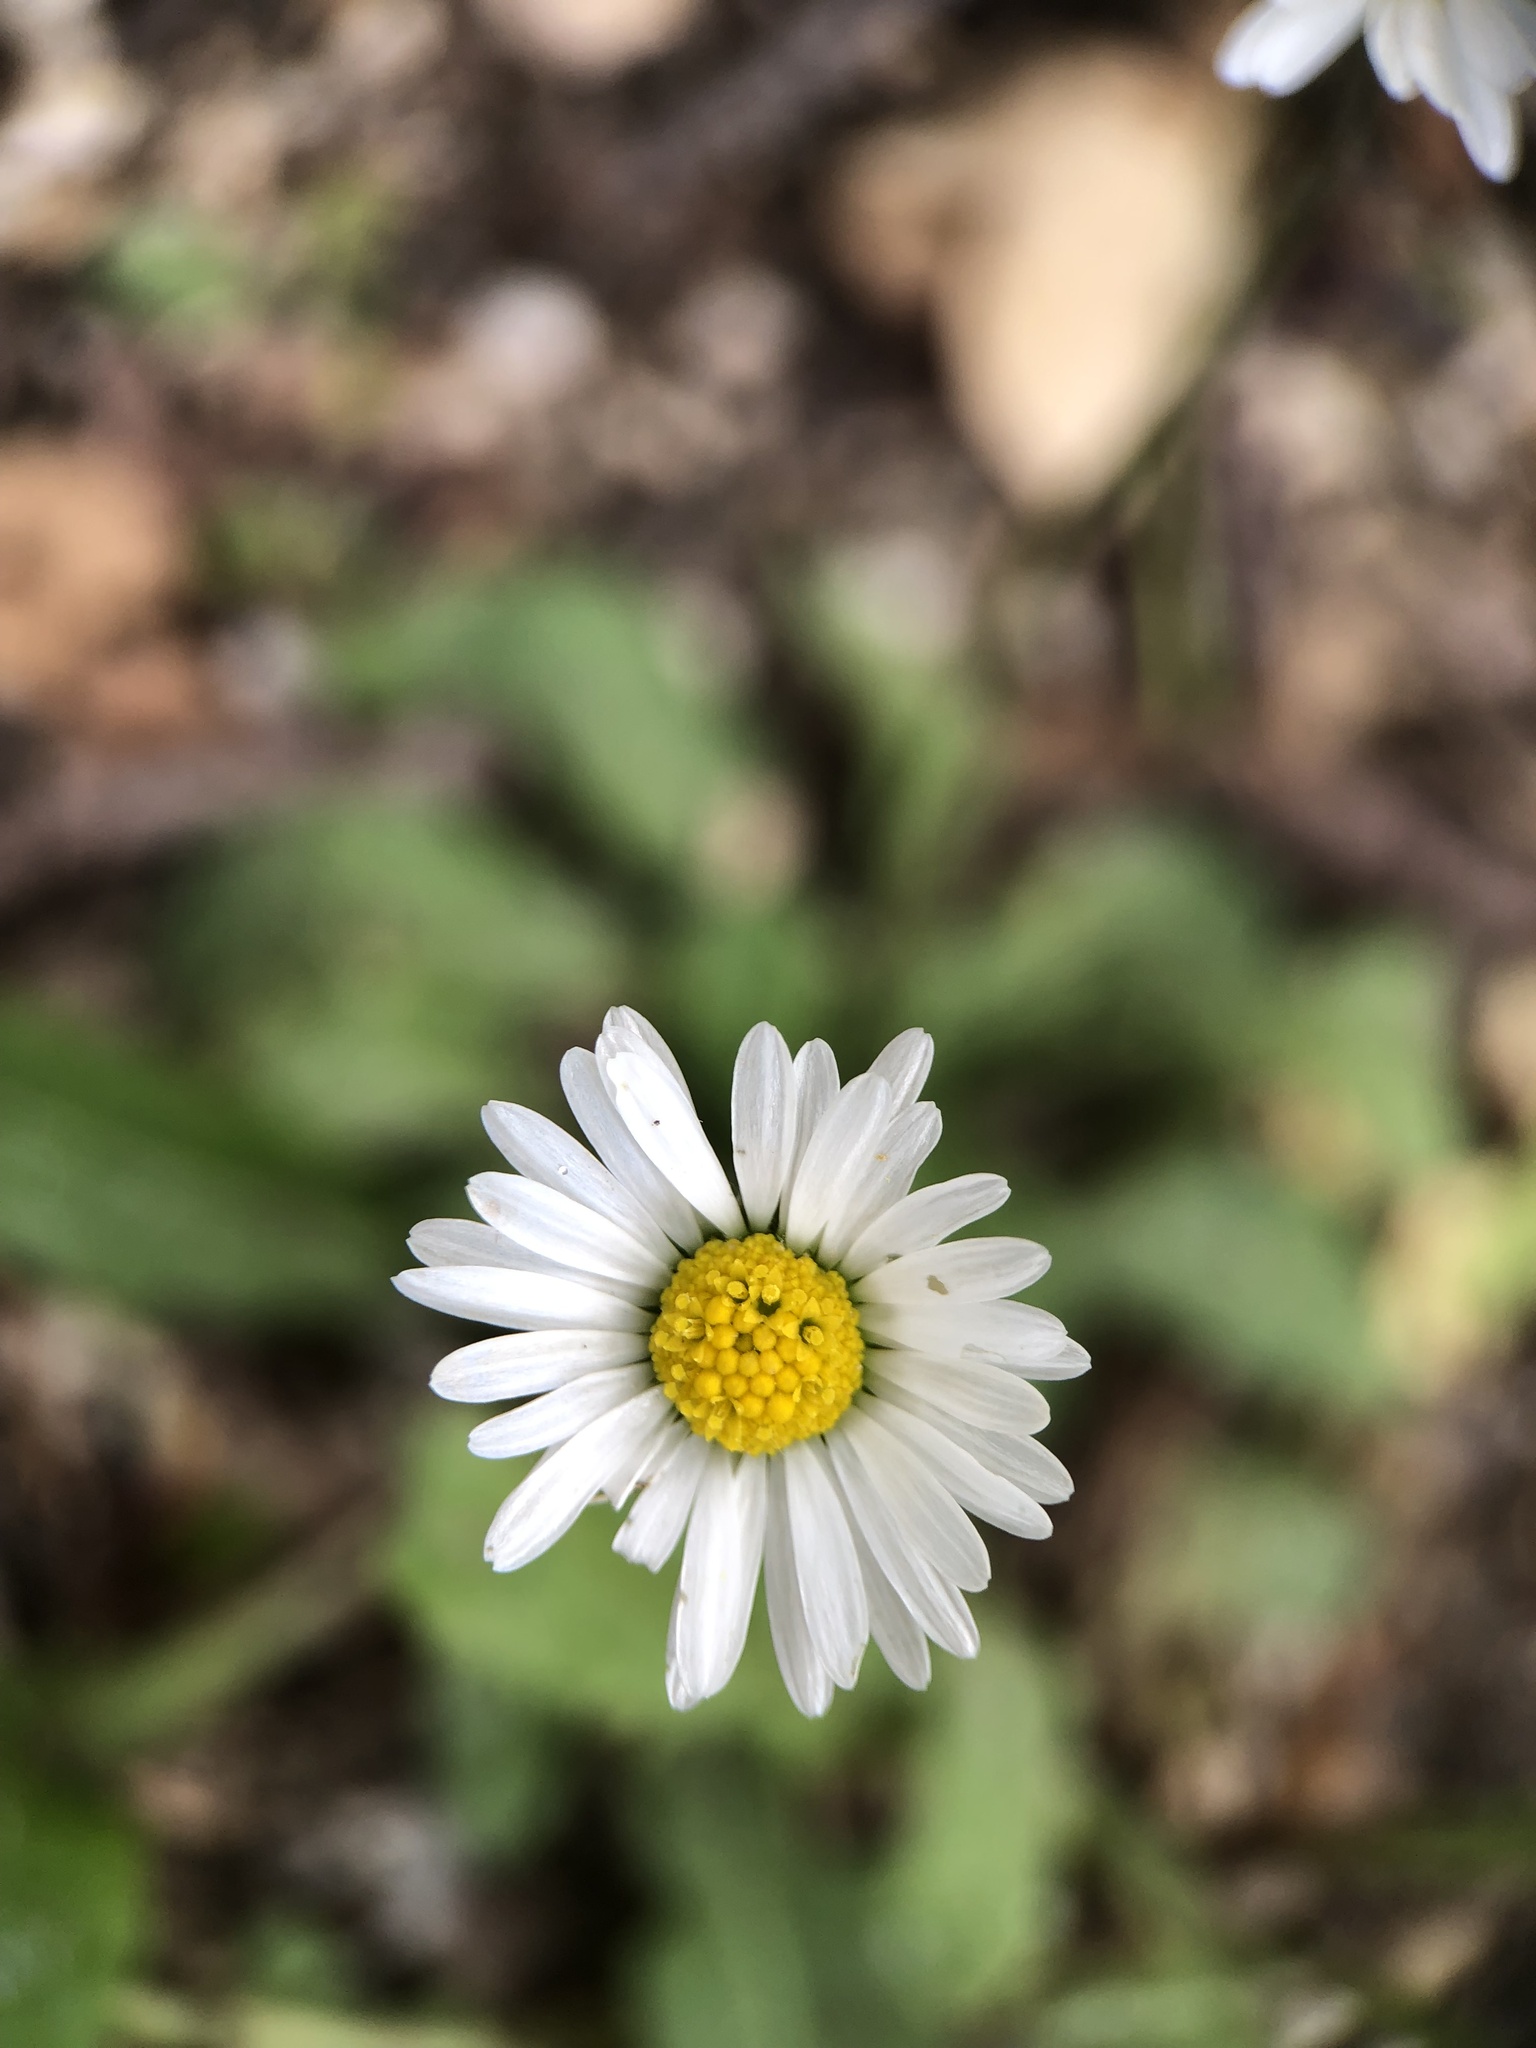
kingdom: Plantae
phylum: Tracheophyta
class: Magnoliopsida
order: Asterales
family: Asteraceae
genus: Bellis
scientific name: Bellis perennis
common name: Lawndaisy
